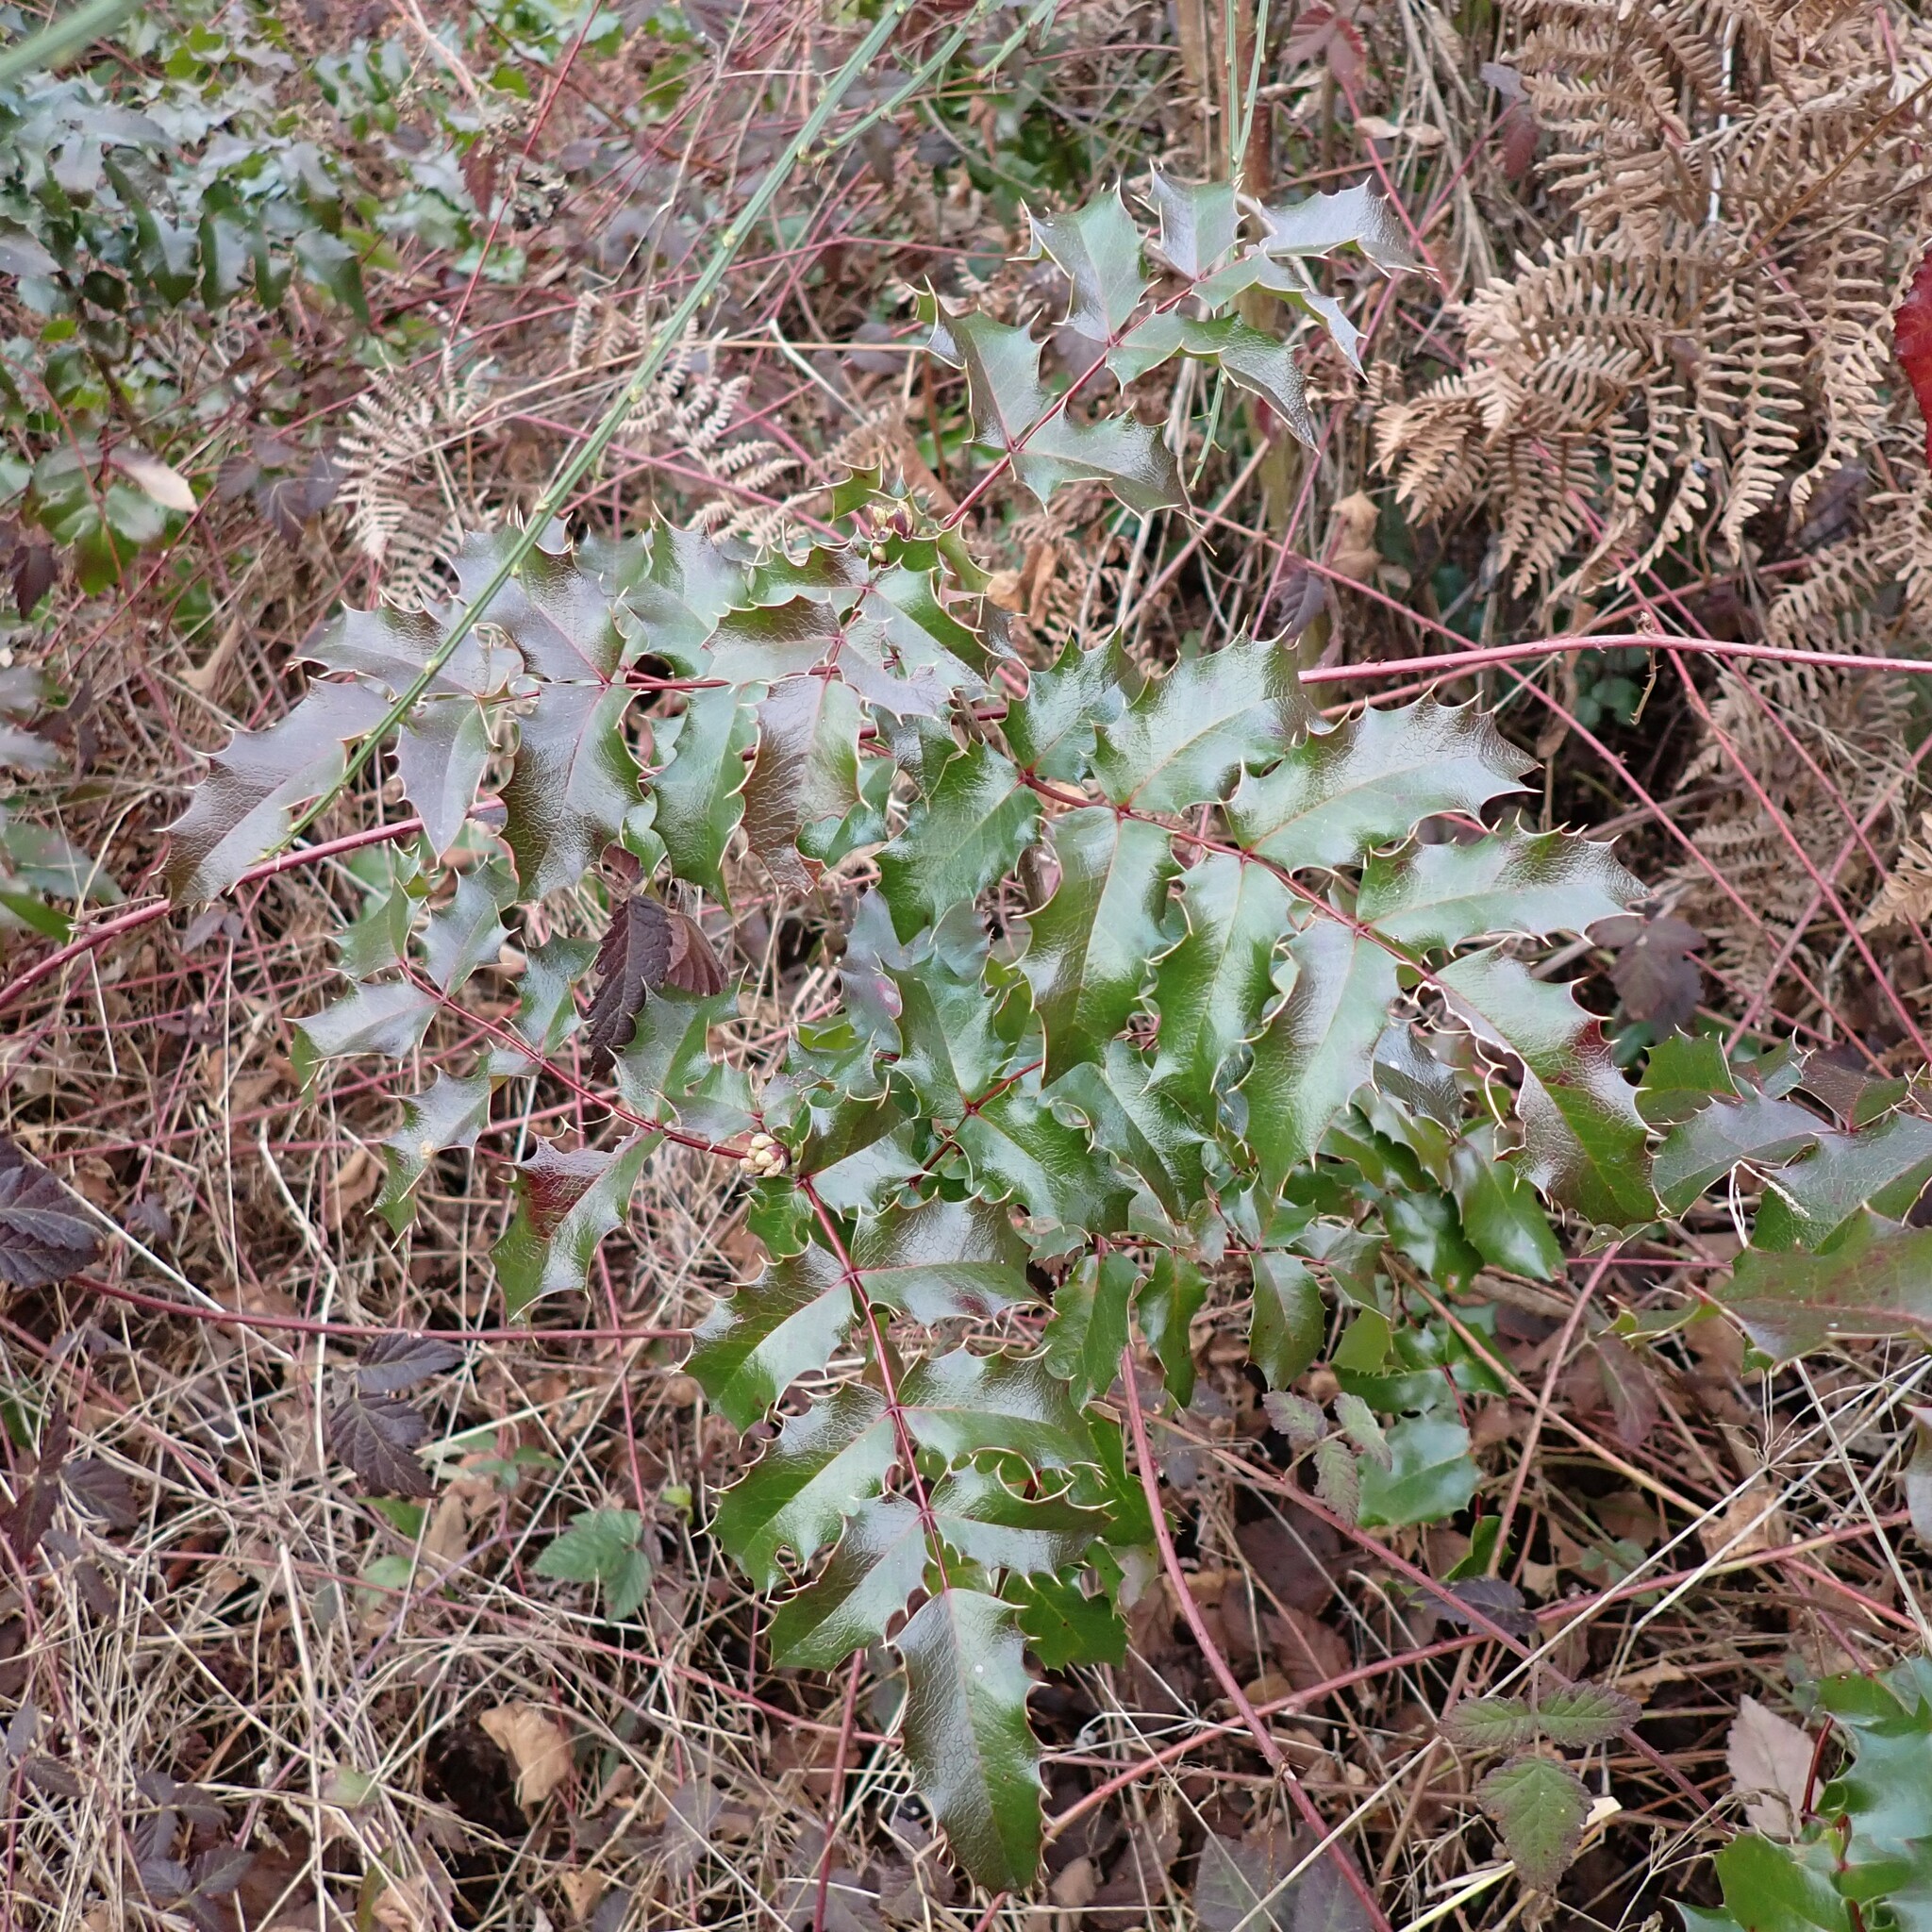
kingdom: Plantae
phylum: Tracheophyta
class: Magnoliopsida
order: Ranunculales
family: Berberidaceae
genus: Mahonia
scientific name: Mahonia aquifolium
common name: Oregon-grape
